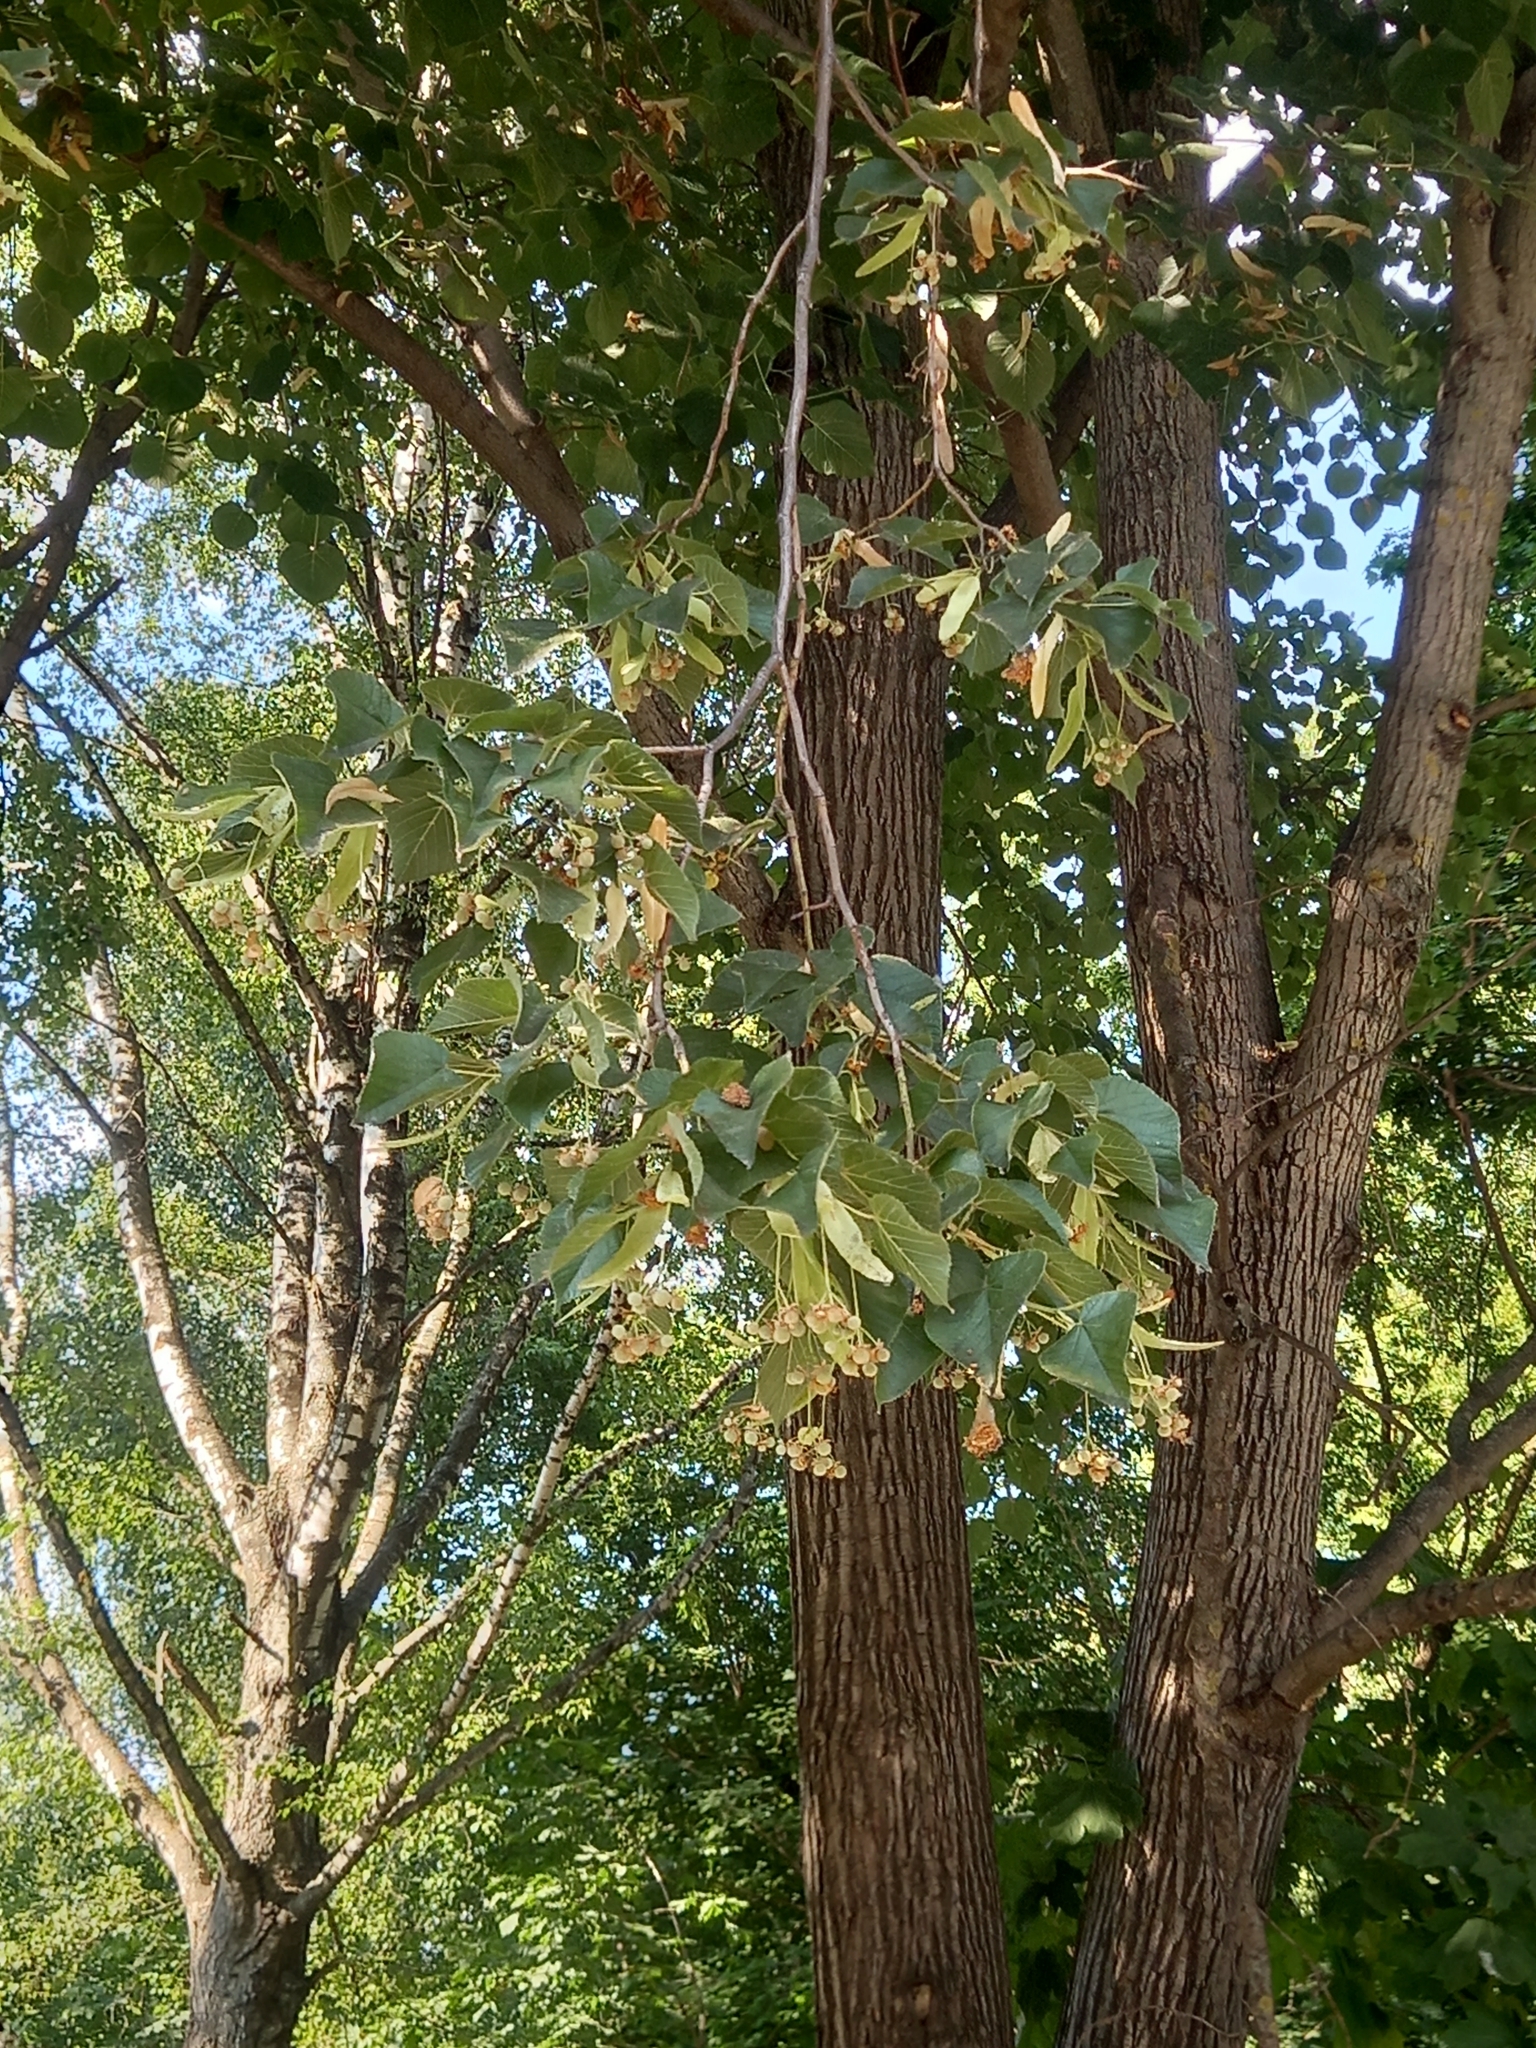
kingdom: Plantae
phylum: Tracheophyta
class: Magnoliopsida
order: Malvales
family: Malvaceae
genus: Tilia
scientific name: Tilia cordata
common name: Small-leaved lime
